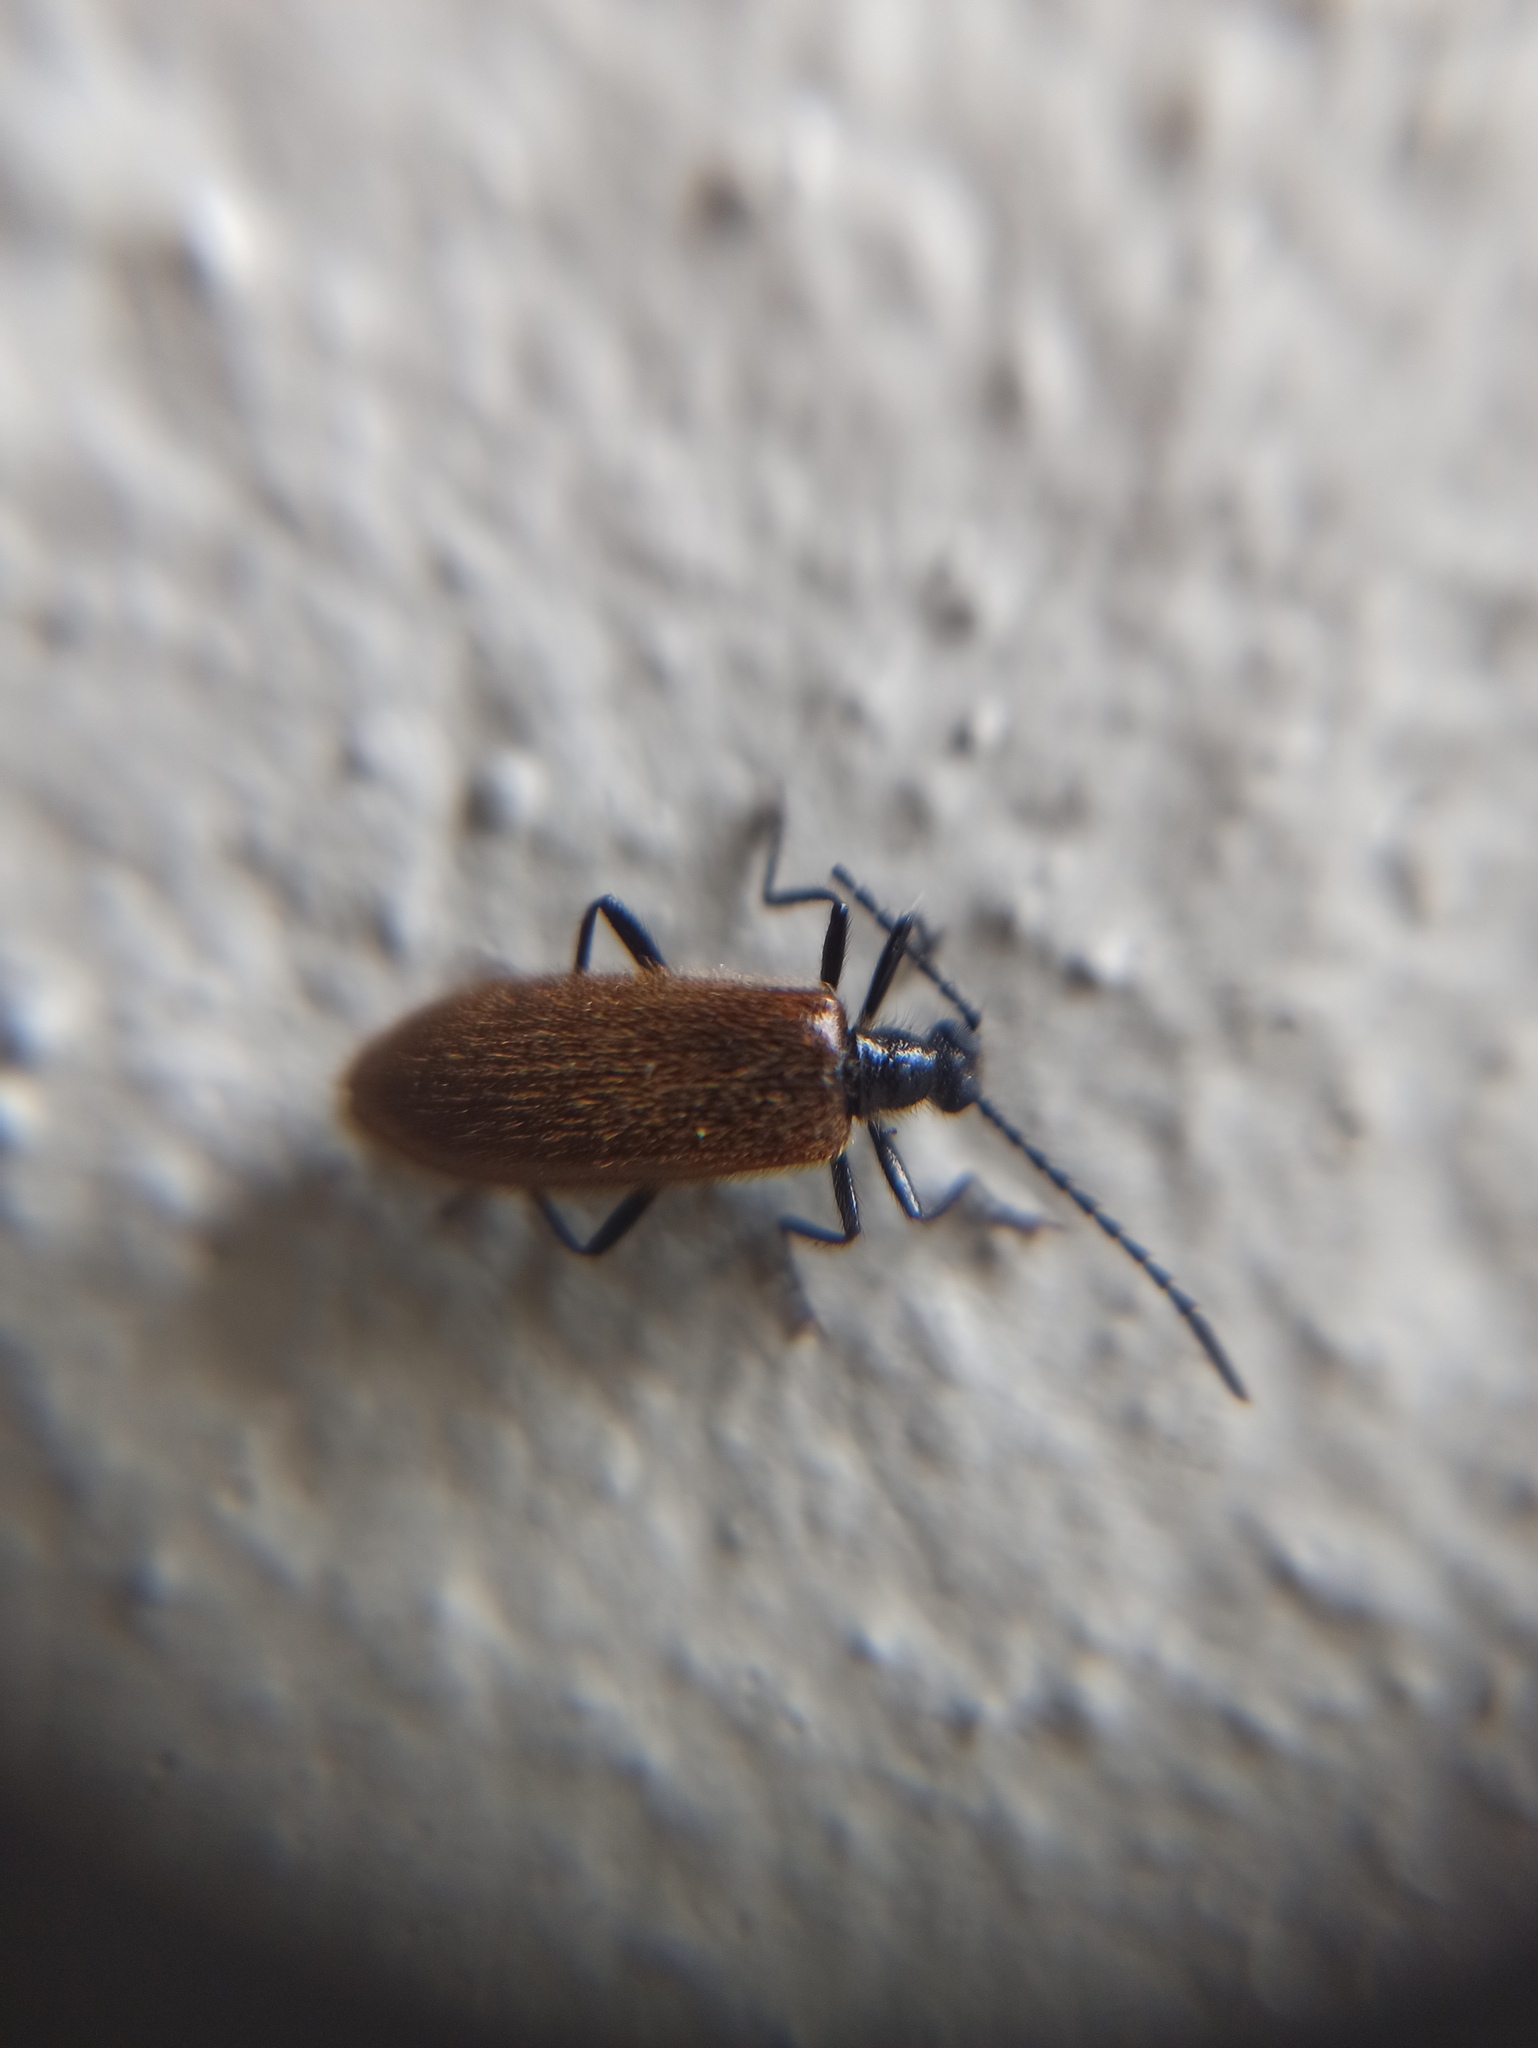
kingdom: Animalia
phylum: Arthropoda
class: Insecta
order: Coleoptera
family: Tenebrionidae
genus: Lagria
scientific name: Lagria hirta
